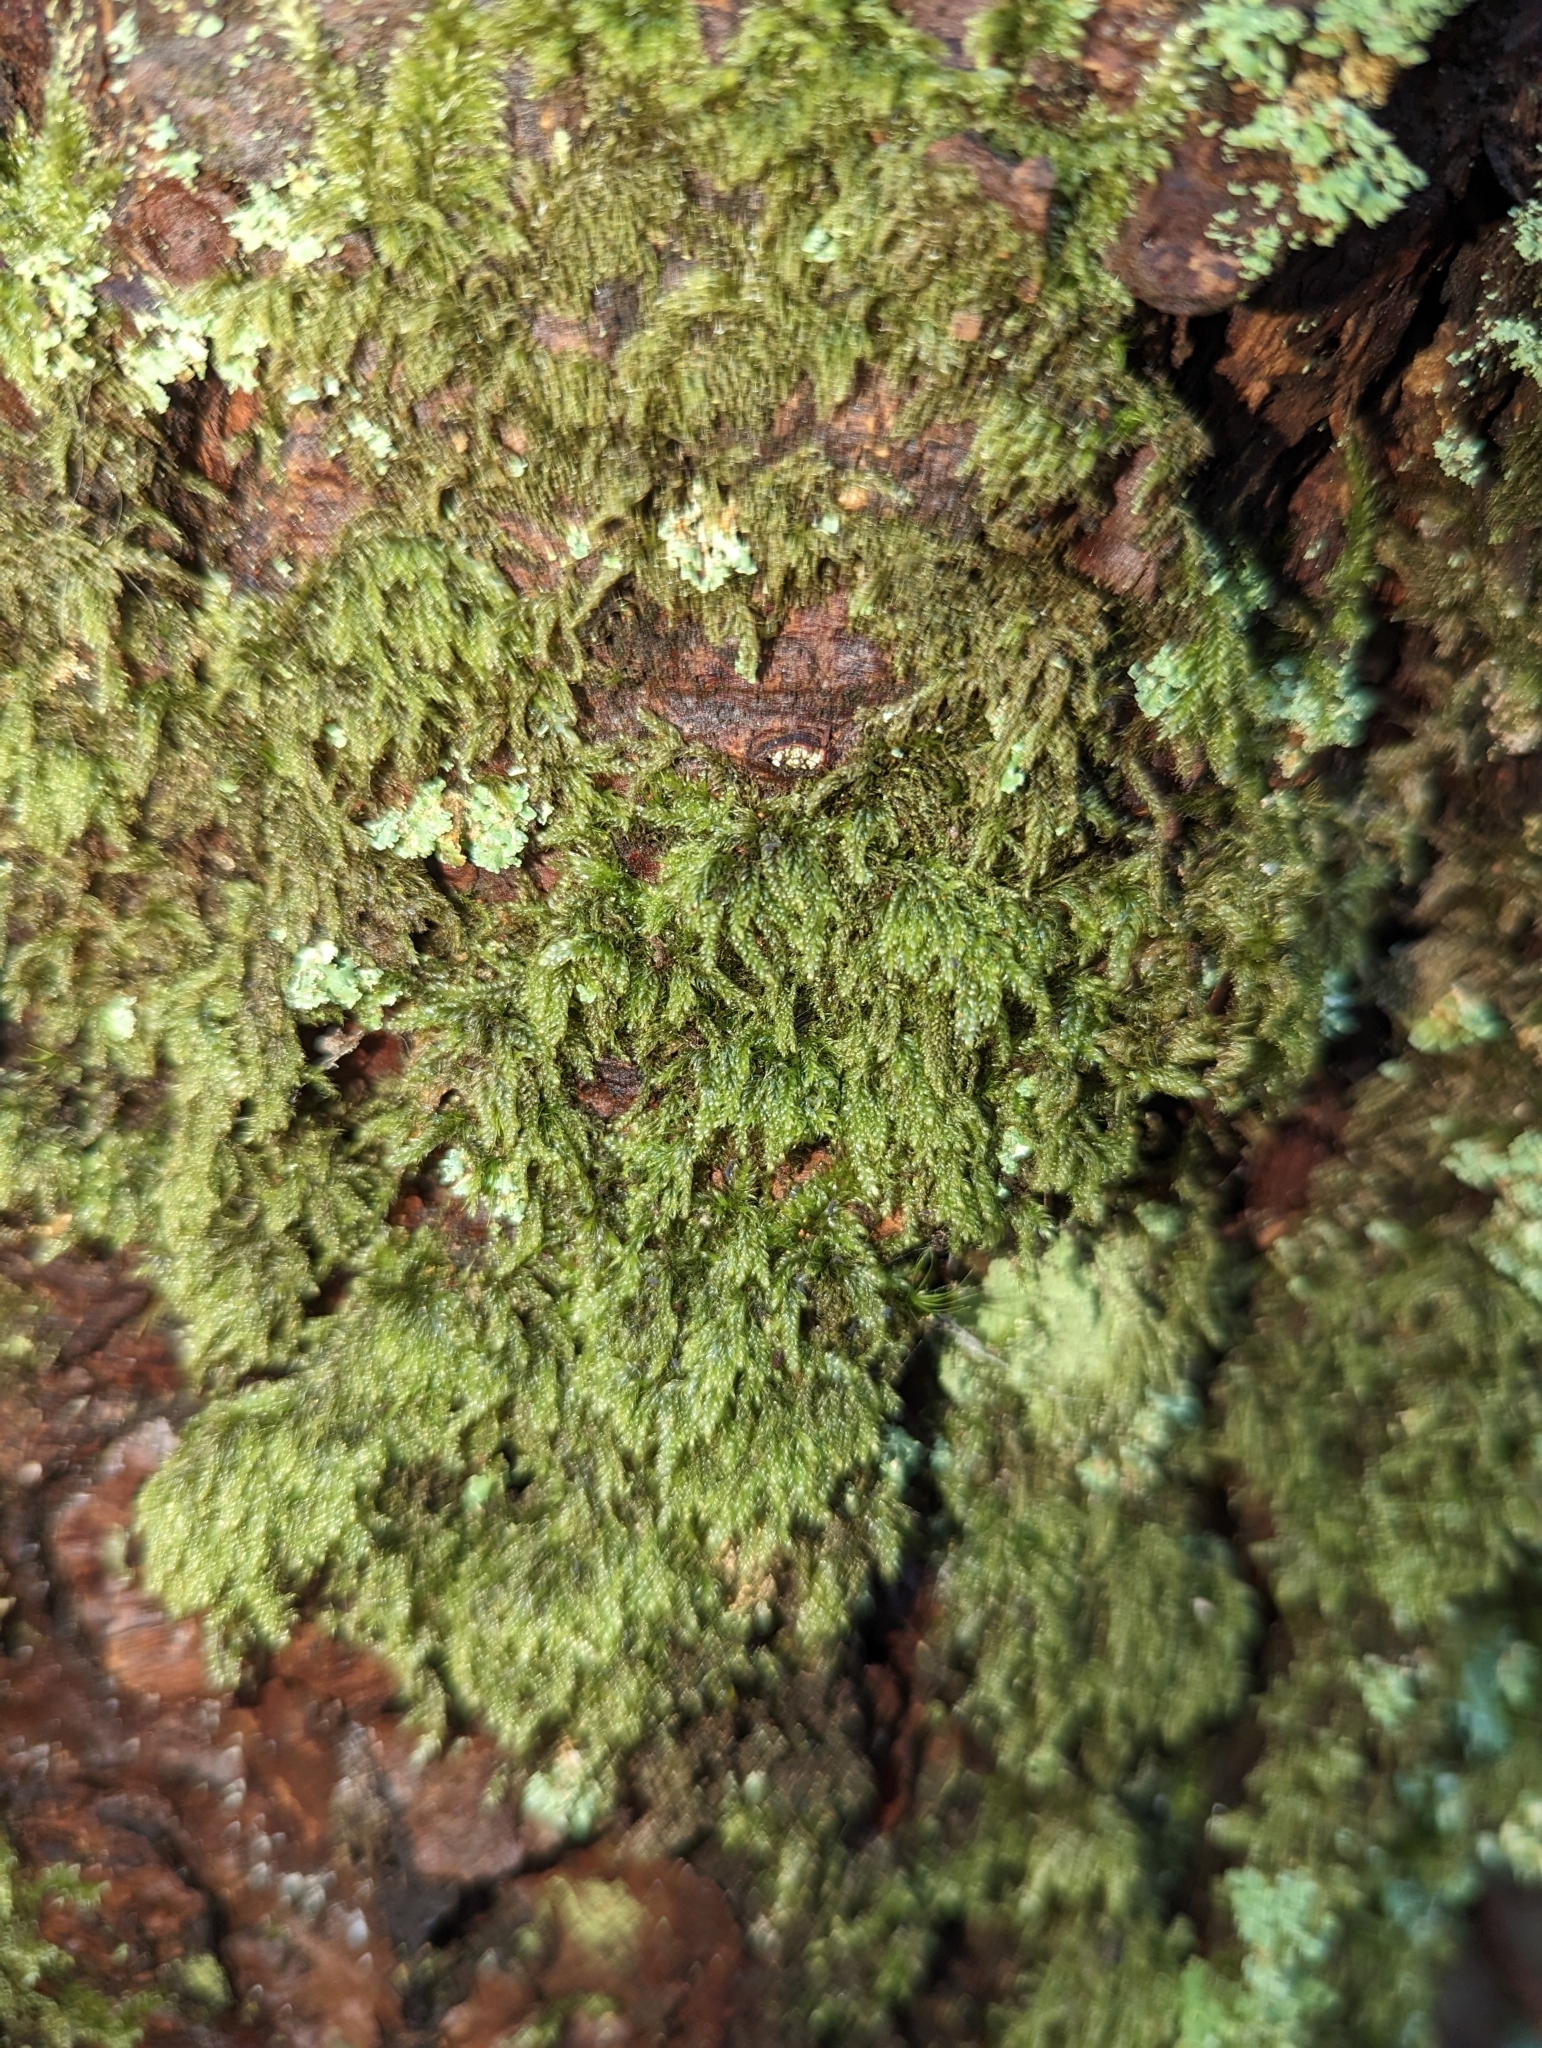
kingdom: Plantae
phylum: Bryophyta
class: Bryopsida
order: Hypnales
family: Pylaisiadelphaceae
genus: Trochophyllohypnum
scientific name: Trochophyllohypnum circinale
